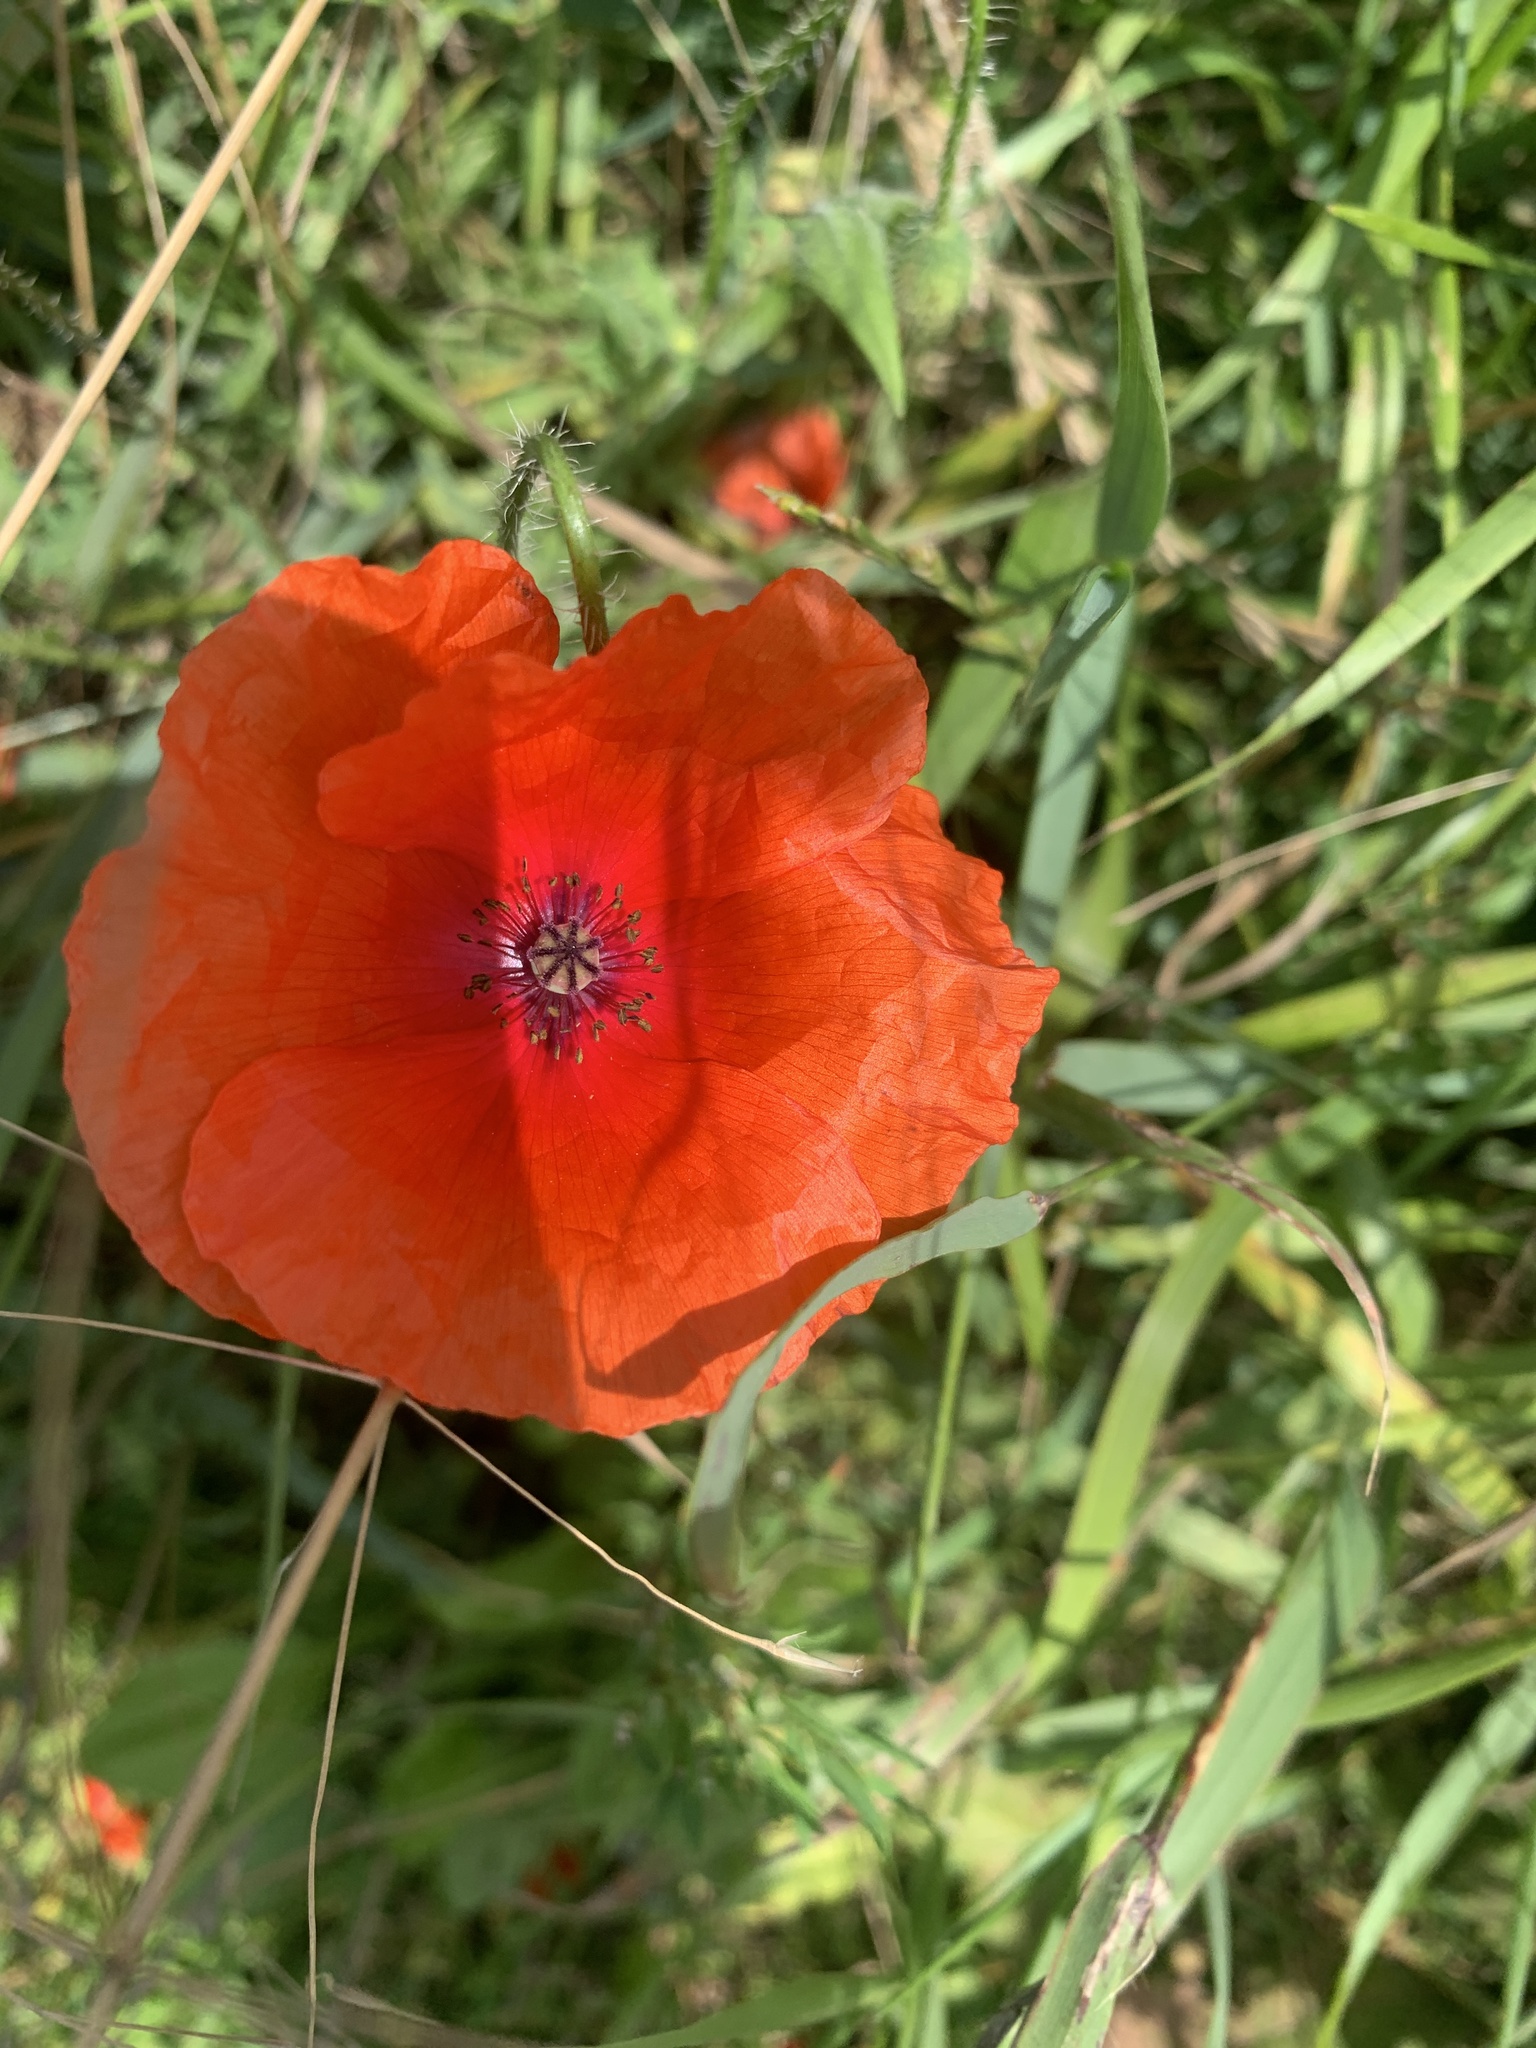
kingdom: Plantae
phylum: Tracheophyta
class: Magnoliopsida
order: Ranunculales
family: Papaveraceae
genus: Papaver
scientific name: Papaver rhoeas
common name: Corn poppy
